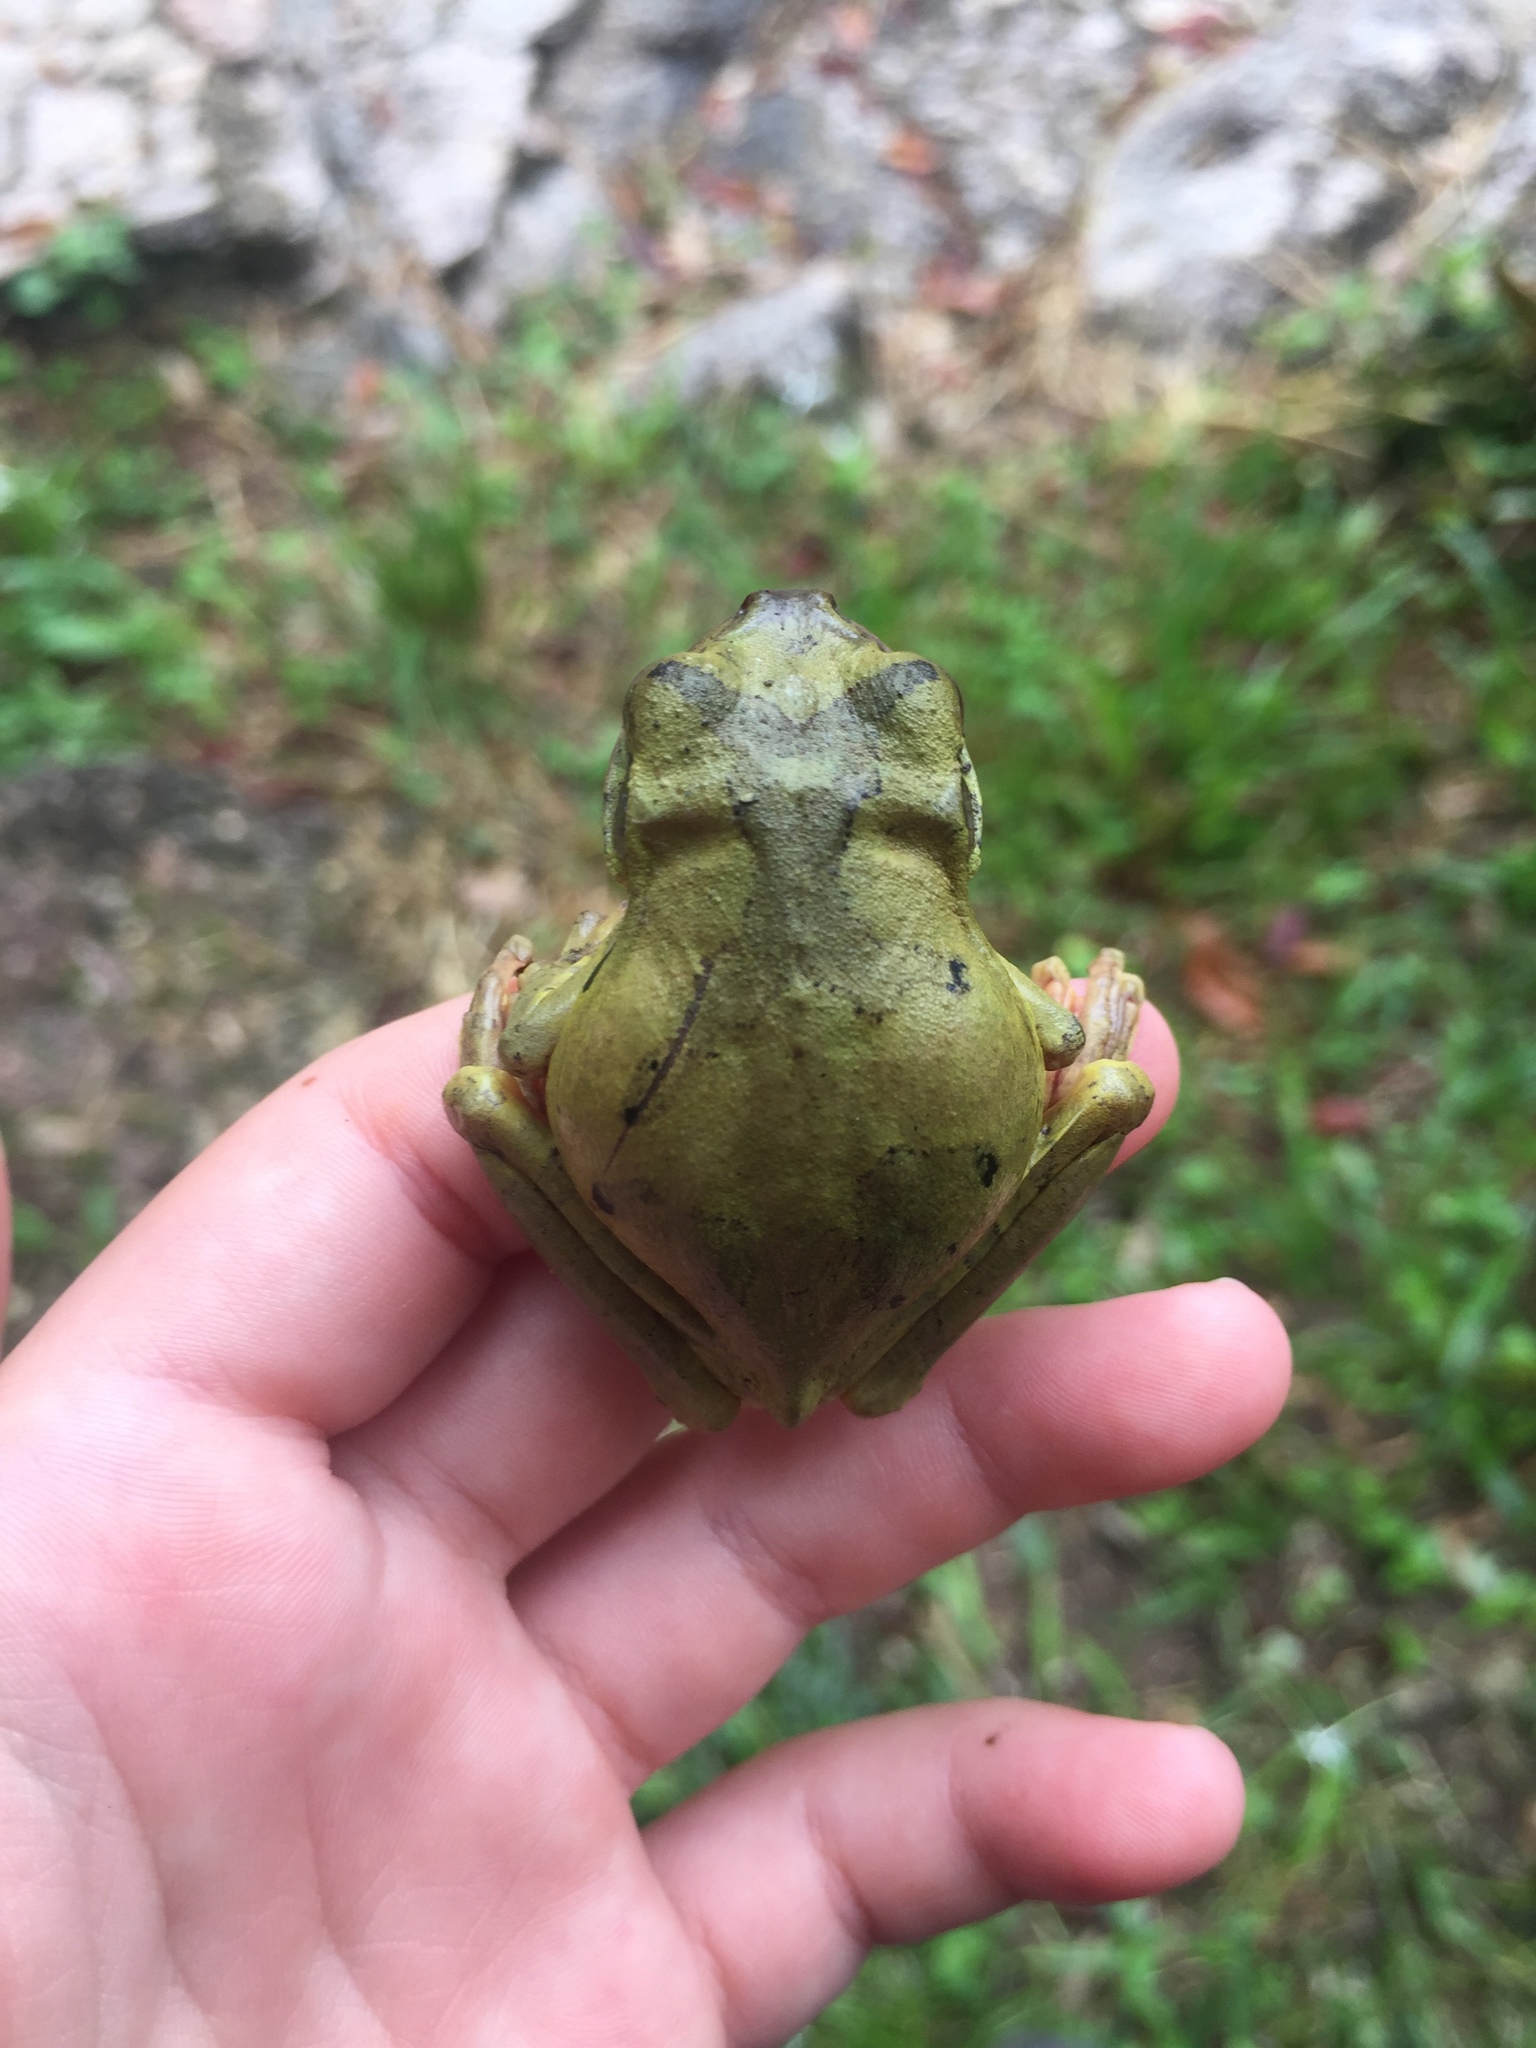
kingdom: Animalia
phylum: Chordata
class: Amphibia
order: Anura
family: Hylidae
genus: Smilisca
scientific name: Smilisca baudinii
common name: Mexican smilisca
